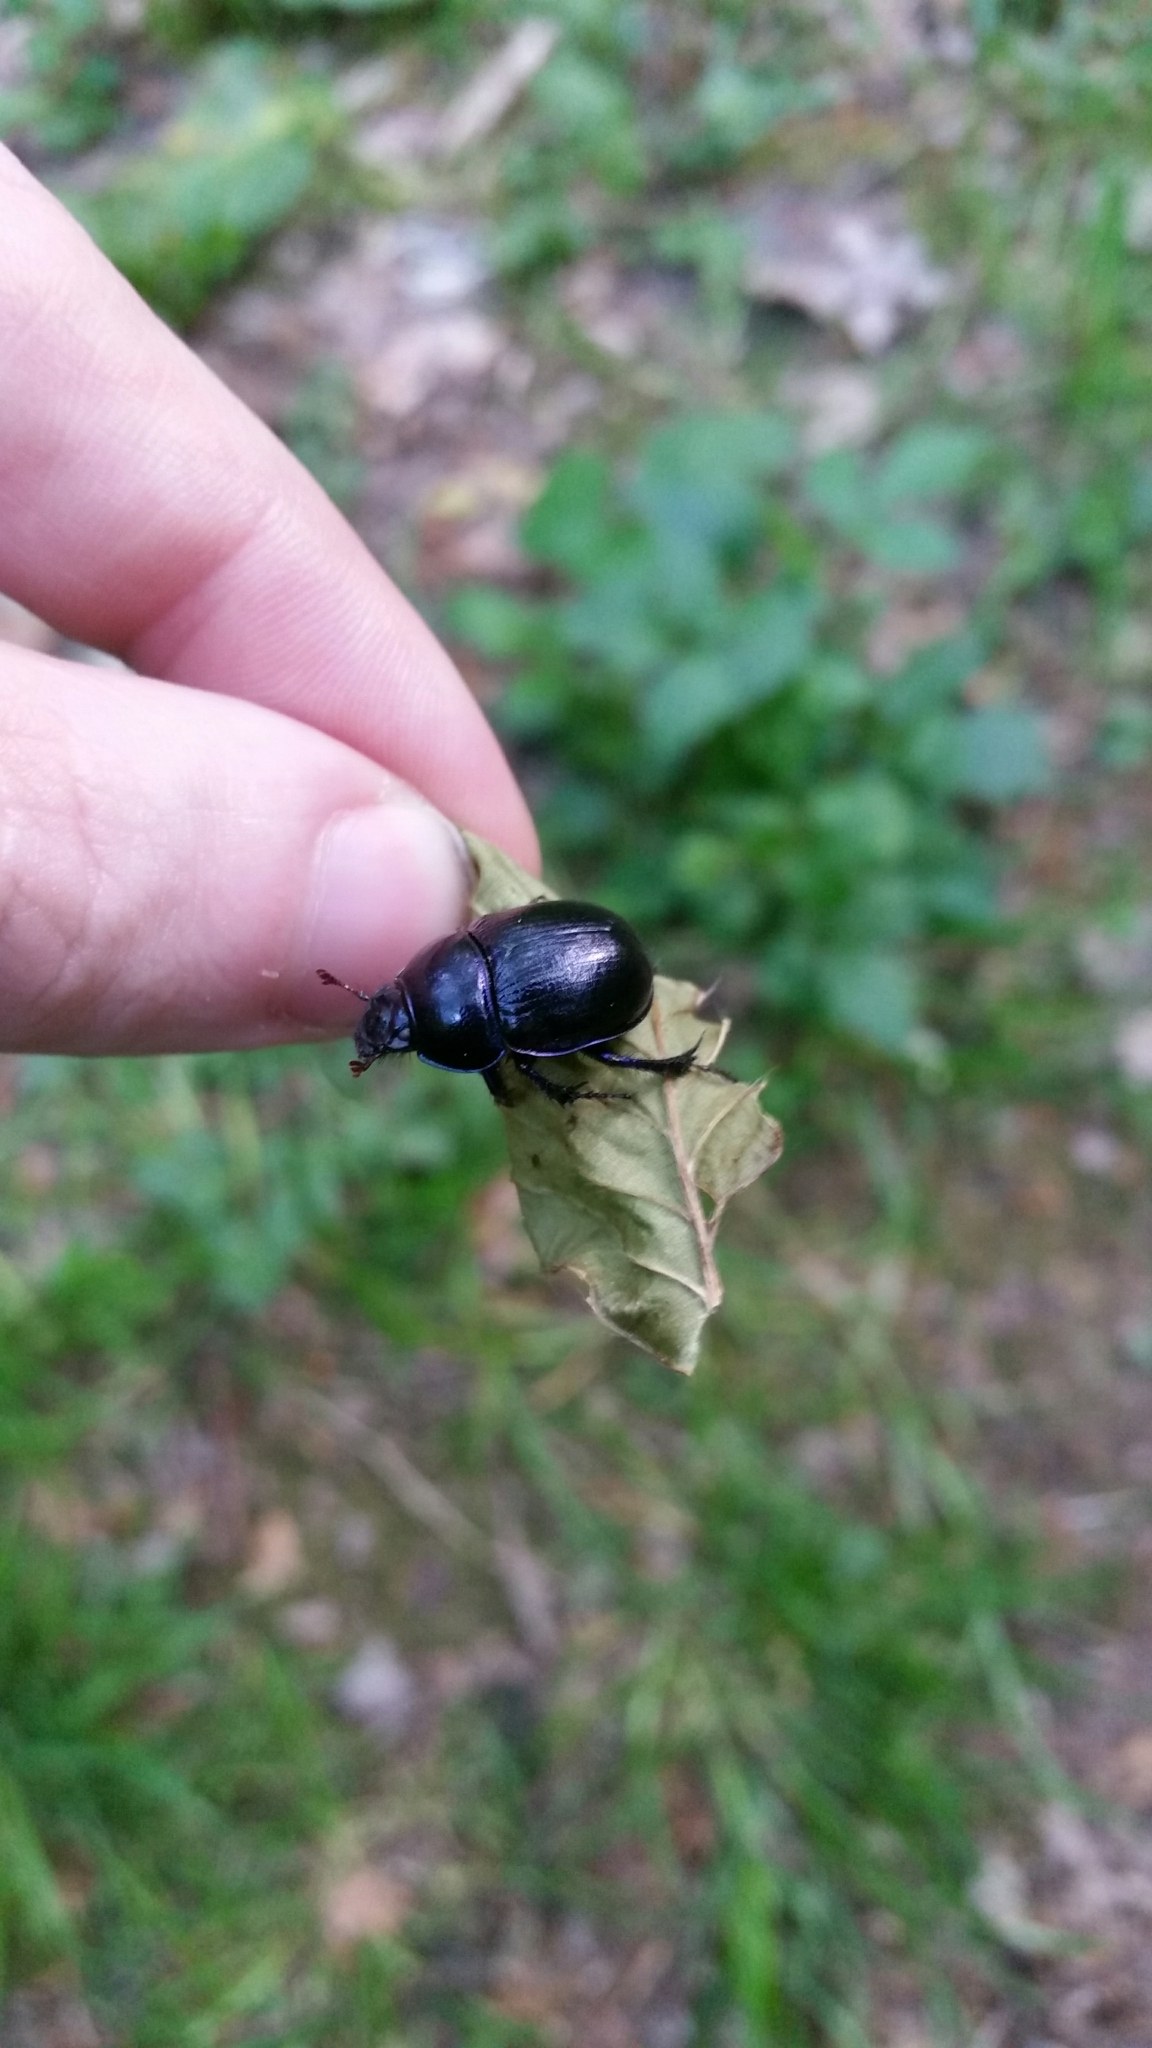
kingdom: Animalia
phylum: Arthropoda
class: Insecta
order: Coleoptera
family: Geotrupidae
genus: Anoplotrupes
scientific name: Anoplotrupes stercorosus
